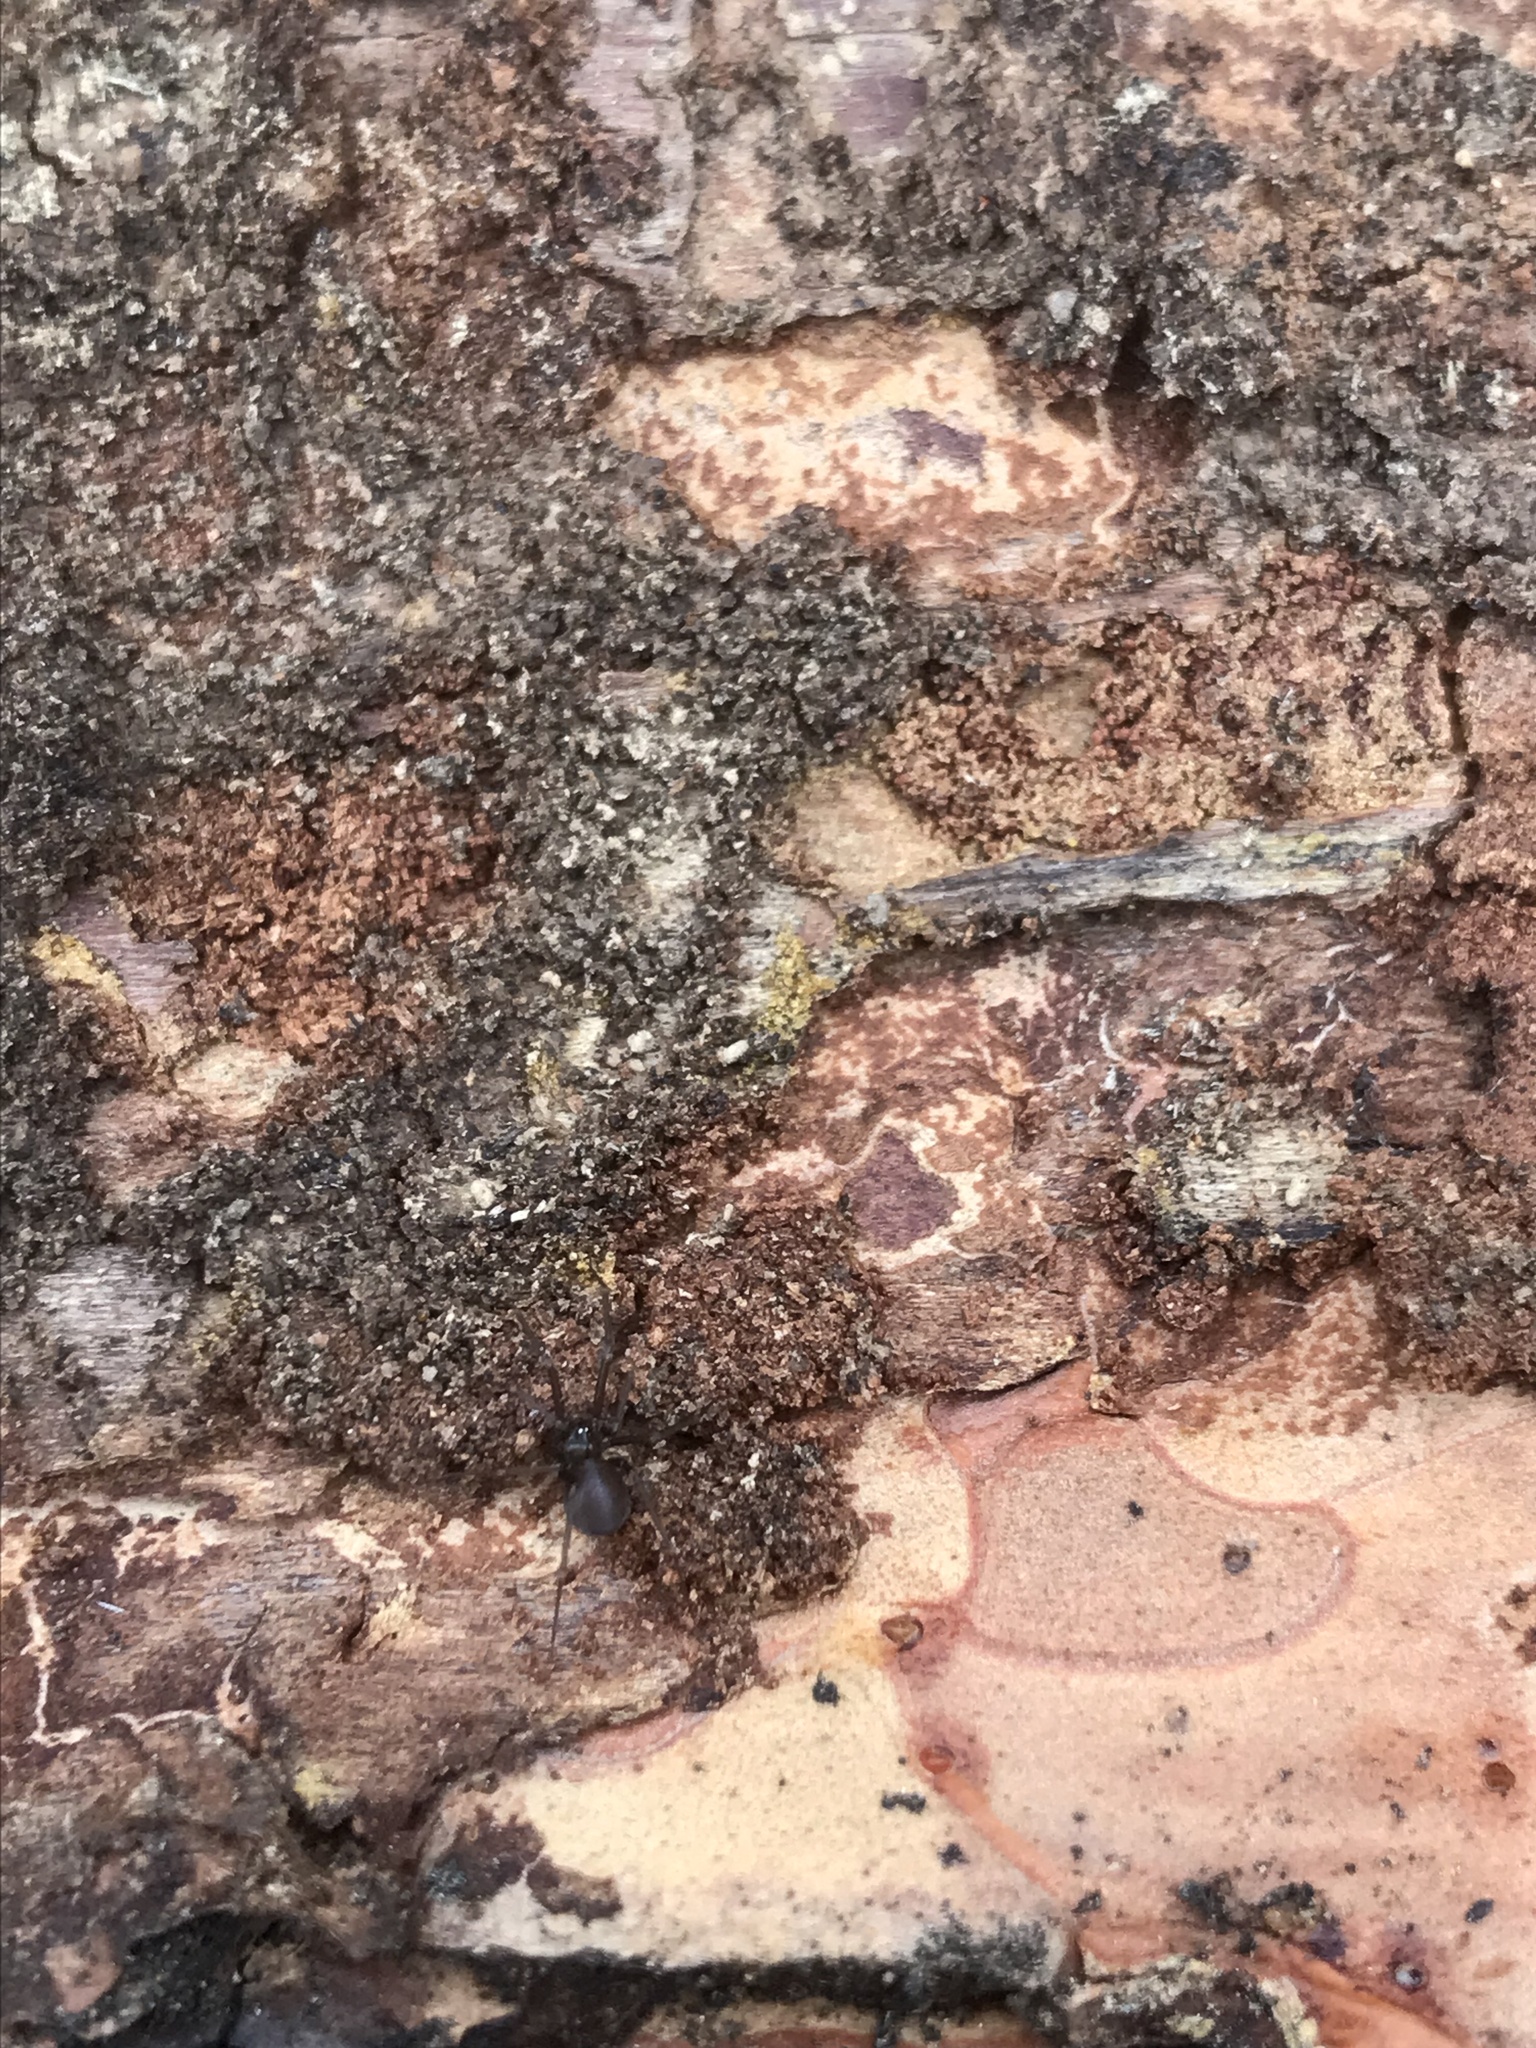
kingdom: Animalia
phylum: Arthropoda
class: Arachnida
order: Araneae
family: Pholcidae
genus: Pholcophora
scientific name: Pholcophora americana
